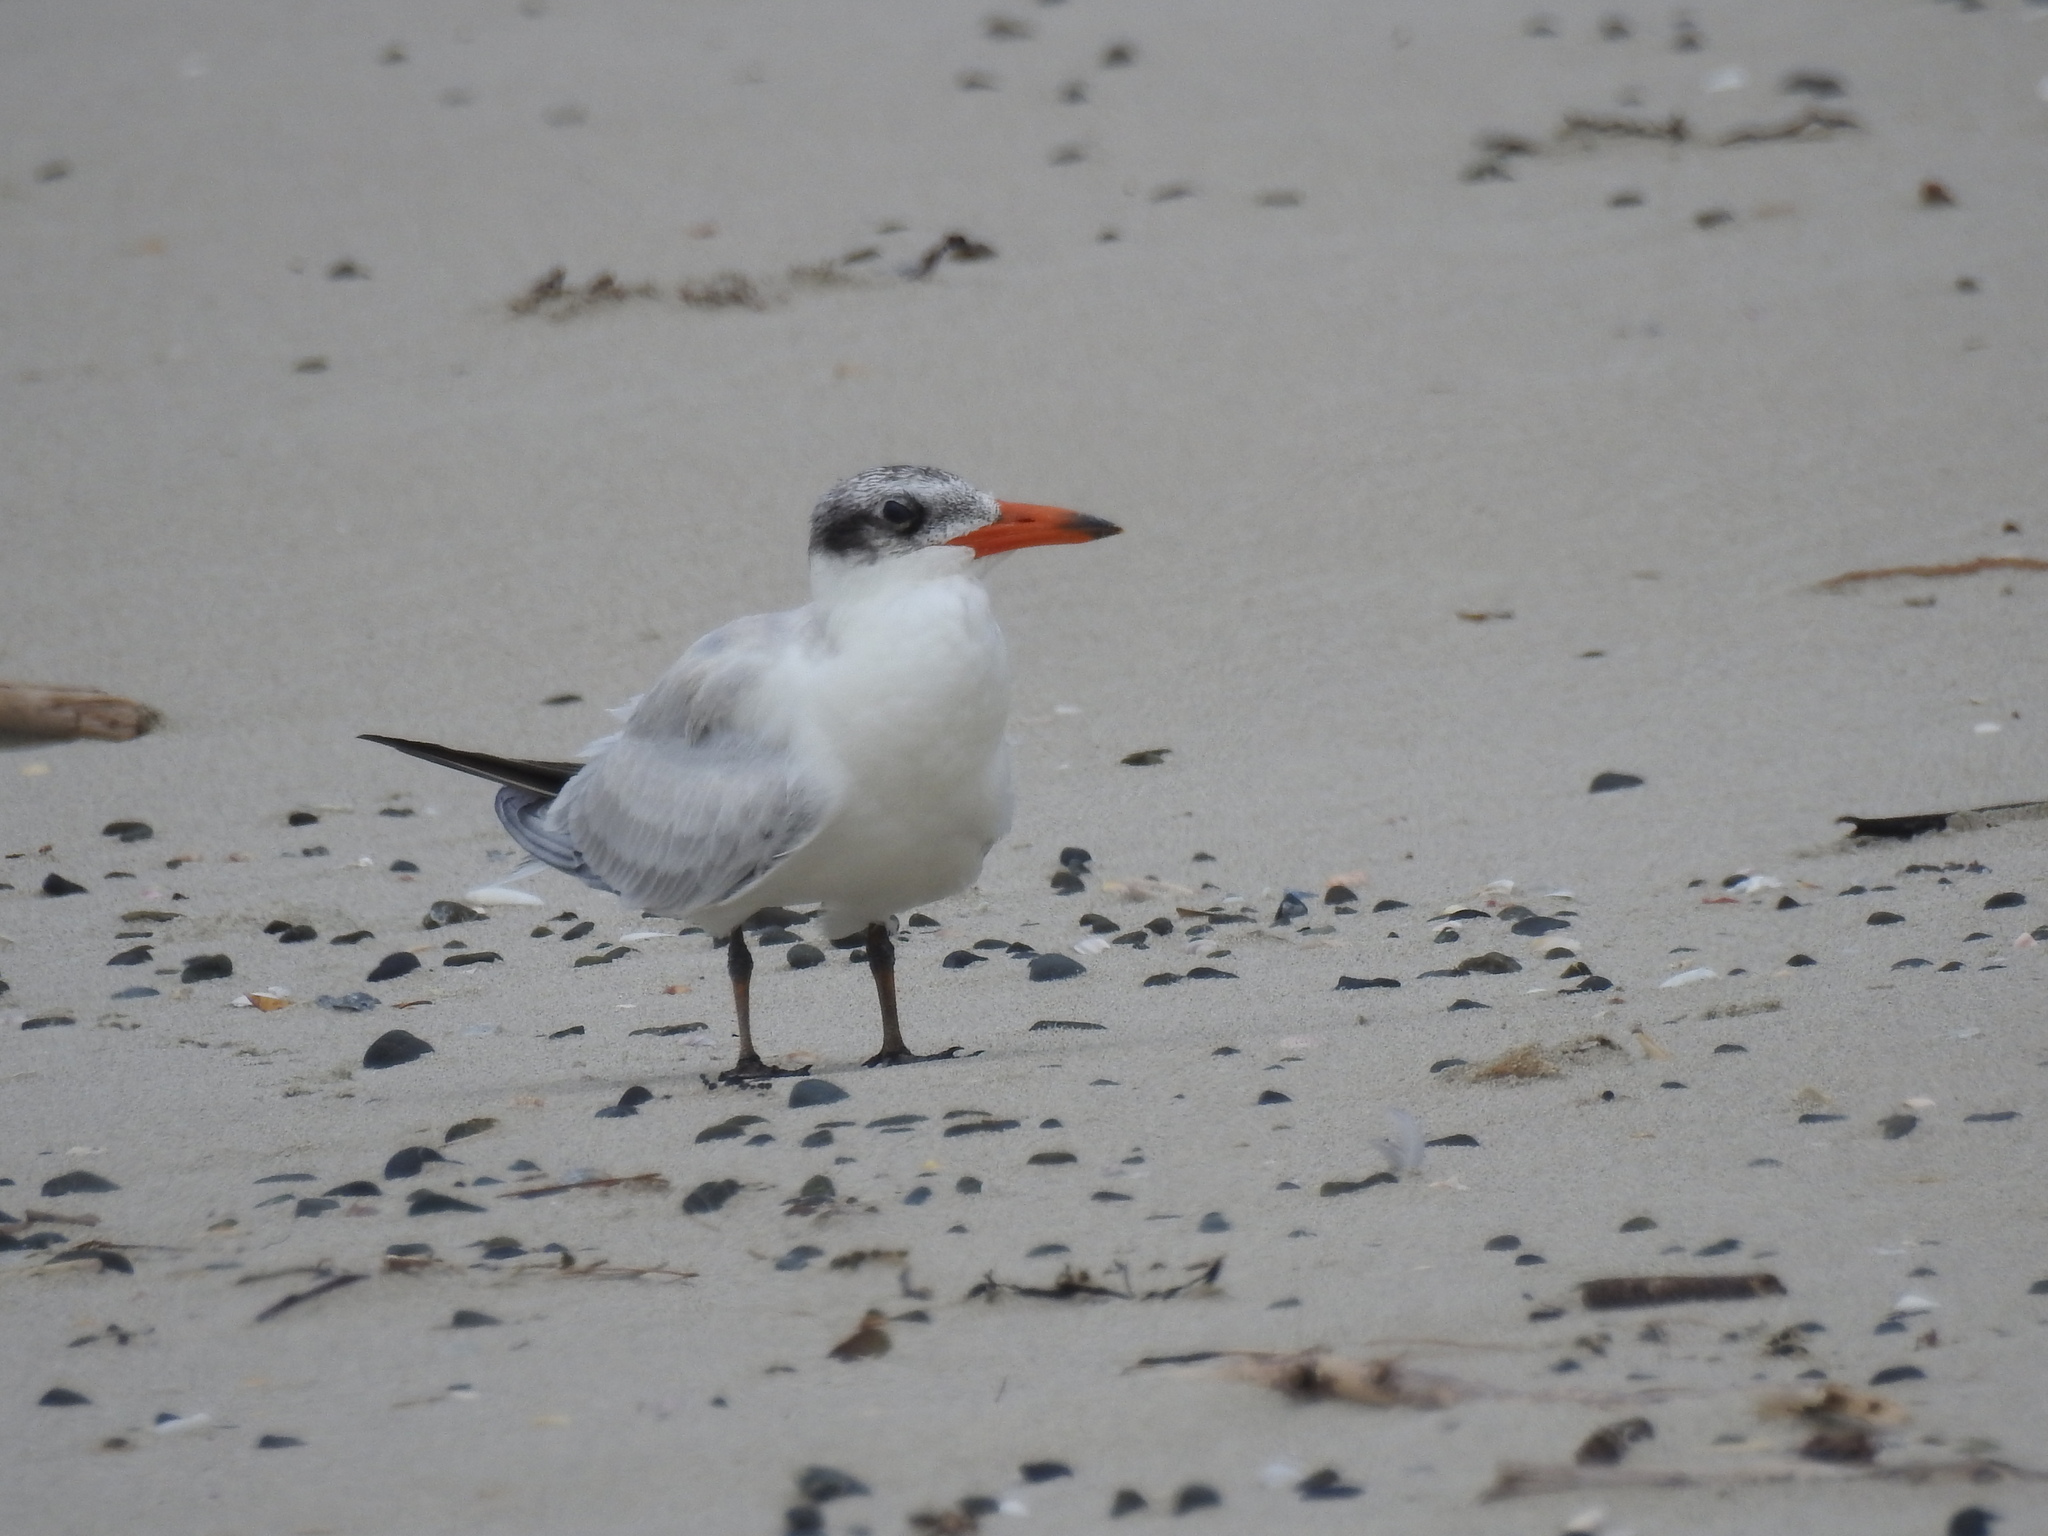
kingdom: Animalia
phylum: Chordata
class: Aves
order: Charadriiformes
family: Laridae
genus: Hydroprogne
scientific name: Hydroprogne caspia
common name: Caspian tern
